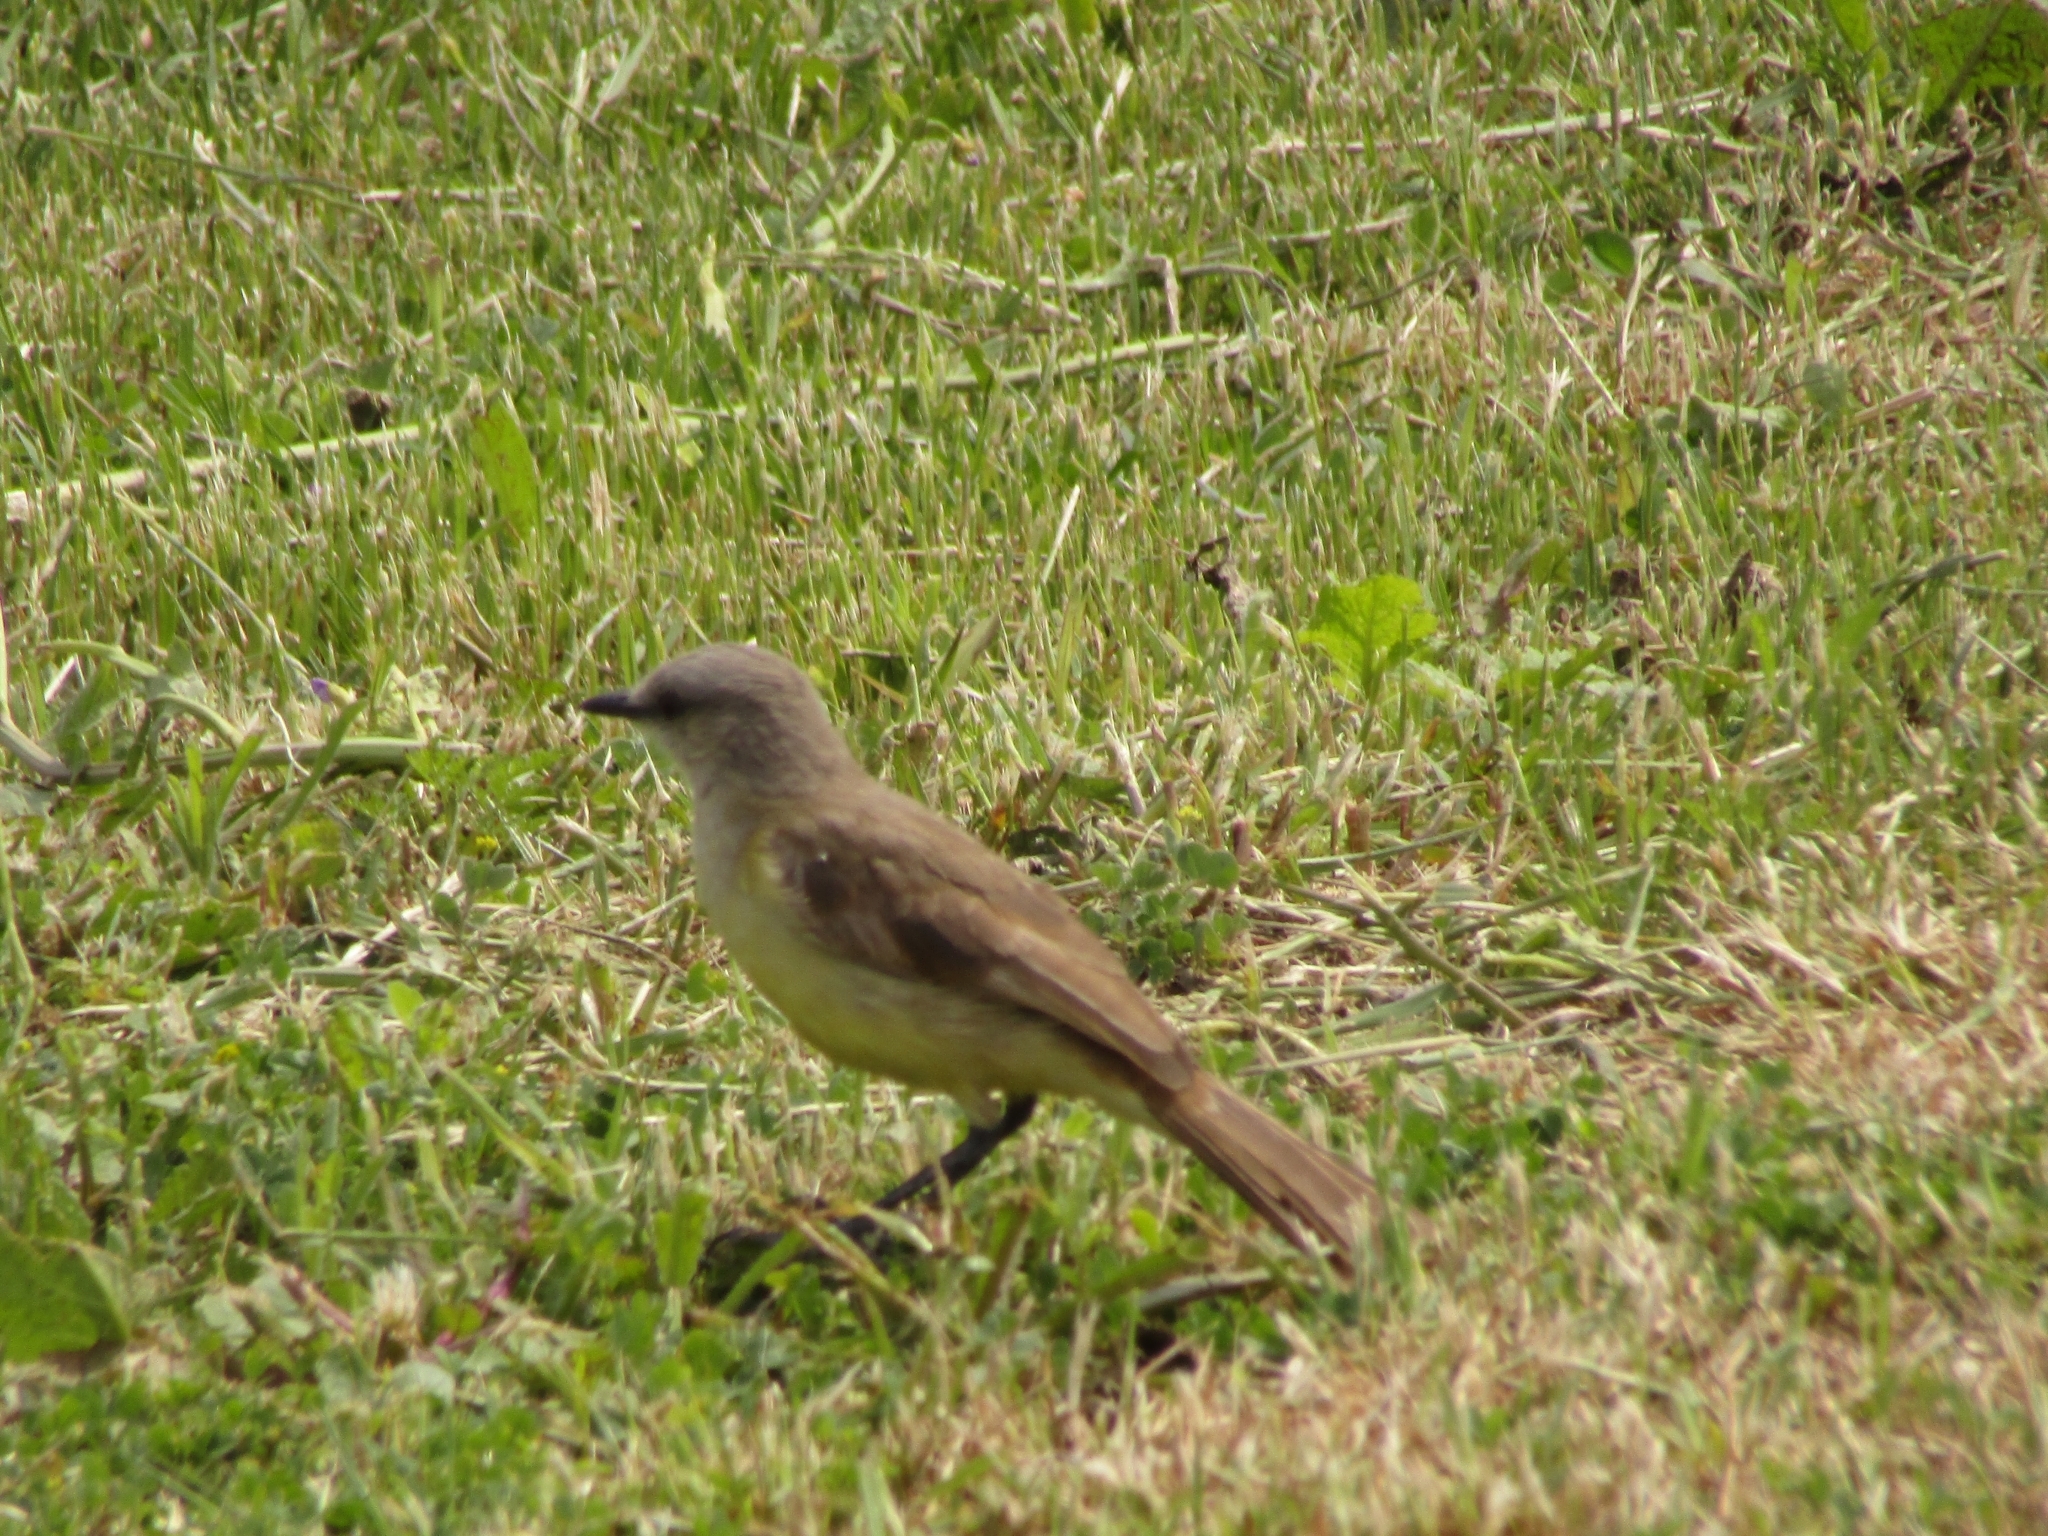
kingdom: Animalia
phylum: Chordata
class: Aves
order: Passeriformes
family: Tyrannidae
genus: Machetornis
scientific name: Machetornis rixosa
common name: Cattle tyrant
